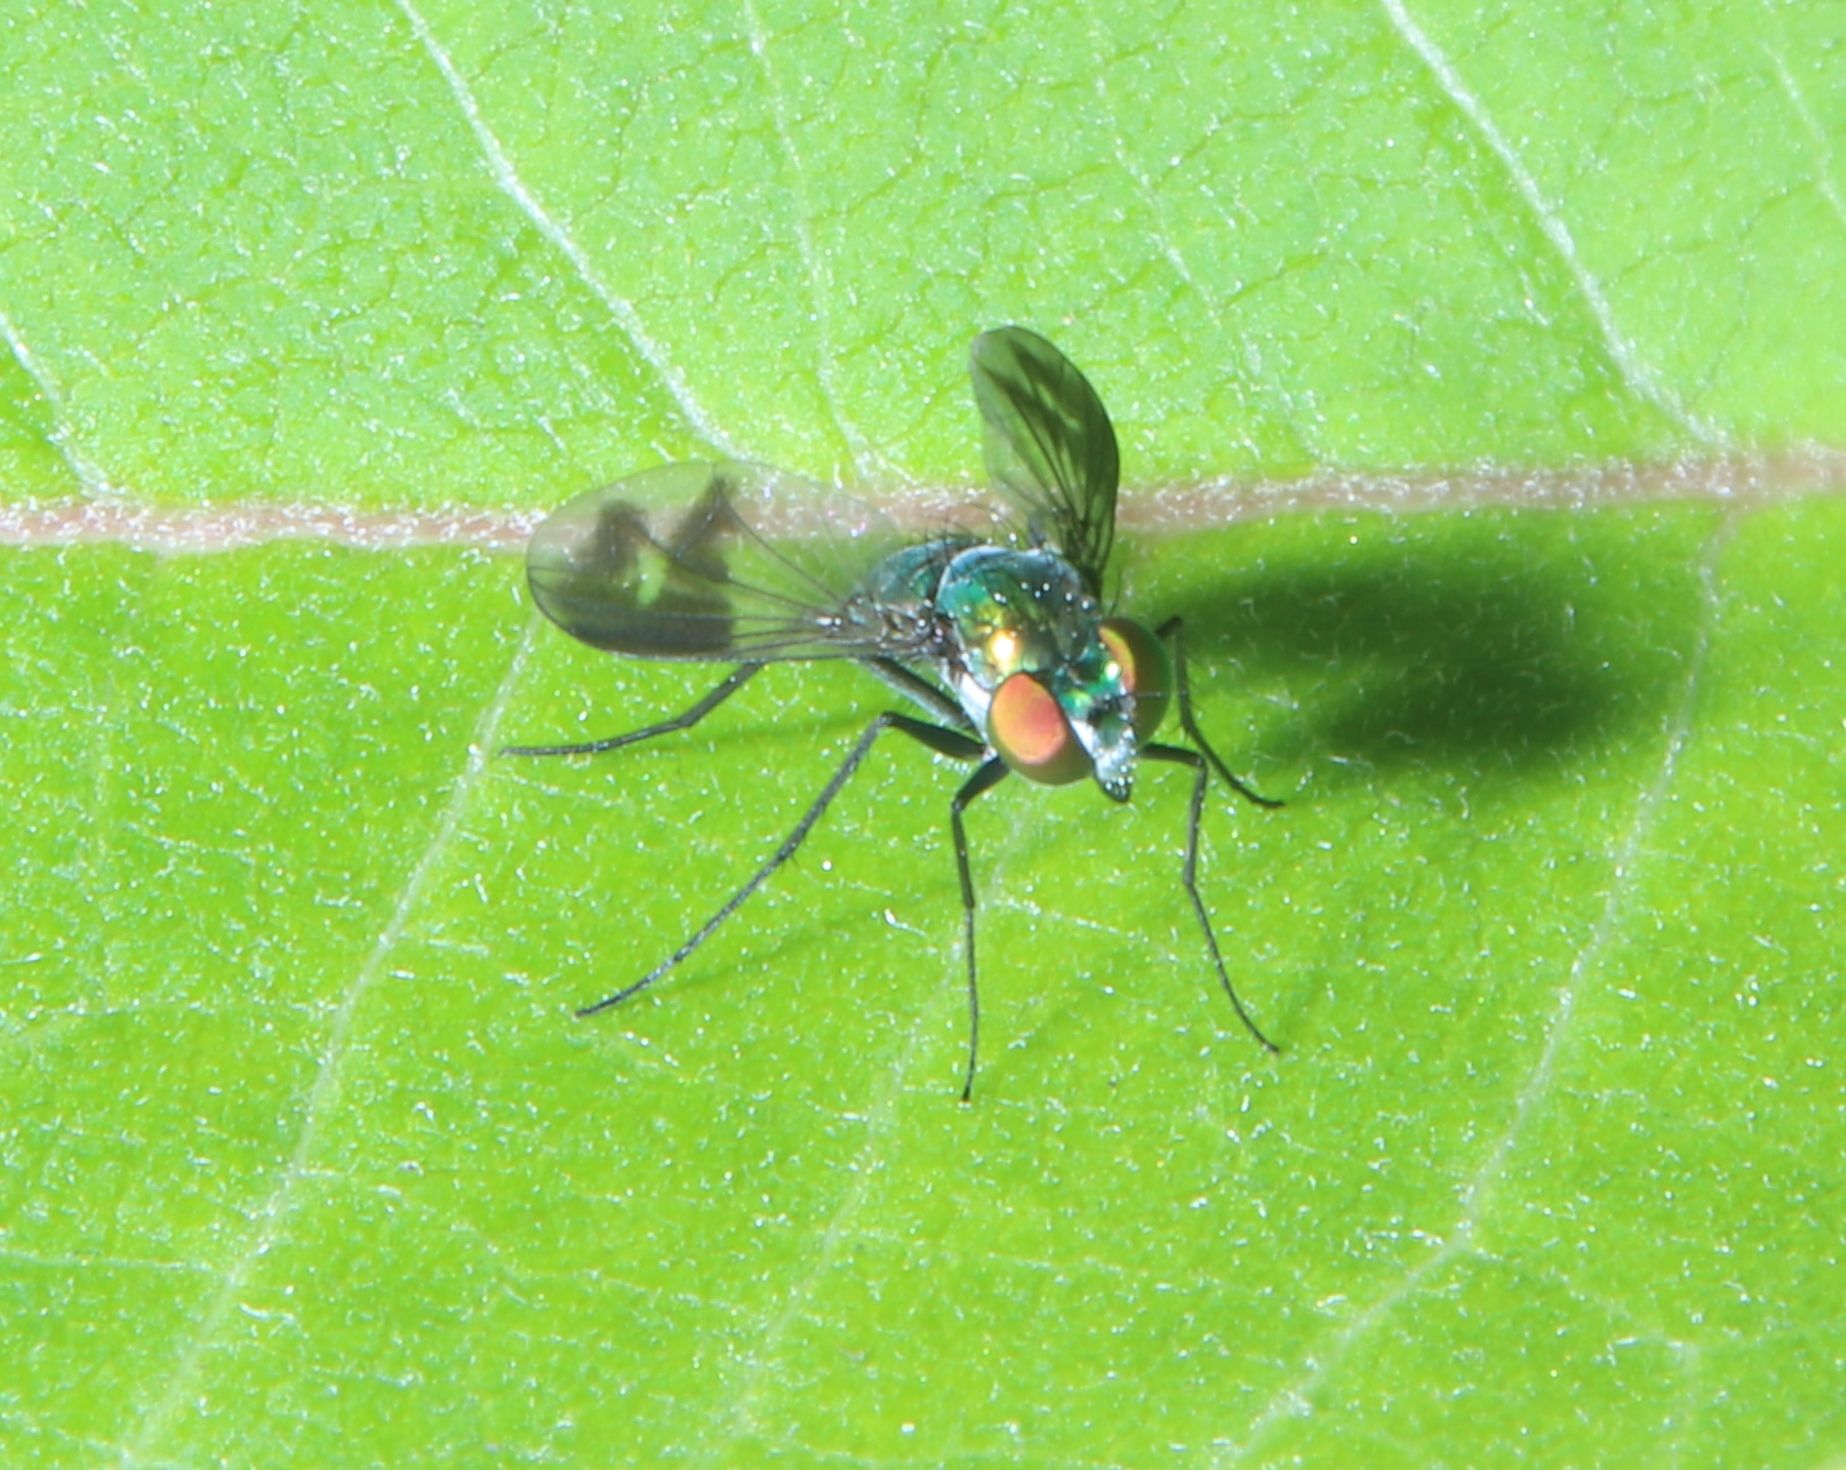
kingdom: Animalia
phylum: Arthropoda
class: Insecta
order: Diptera
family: Dolichopodidae
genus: Condylostylus
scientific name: Condylostylus patibulatus
